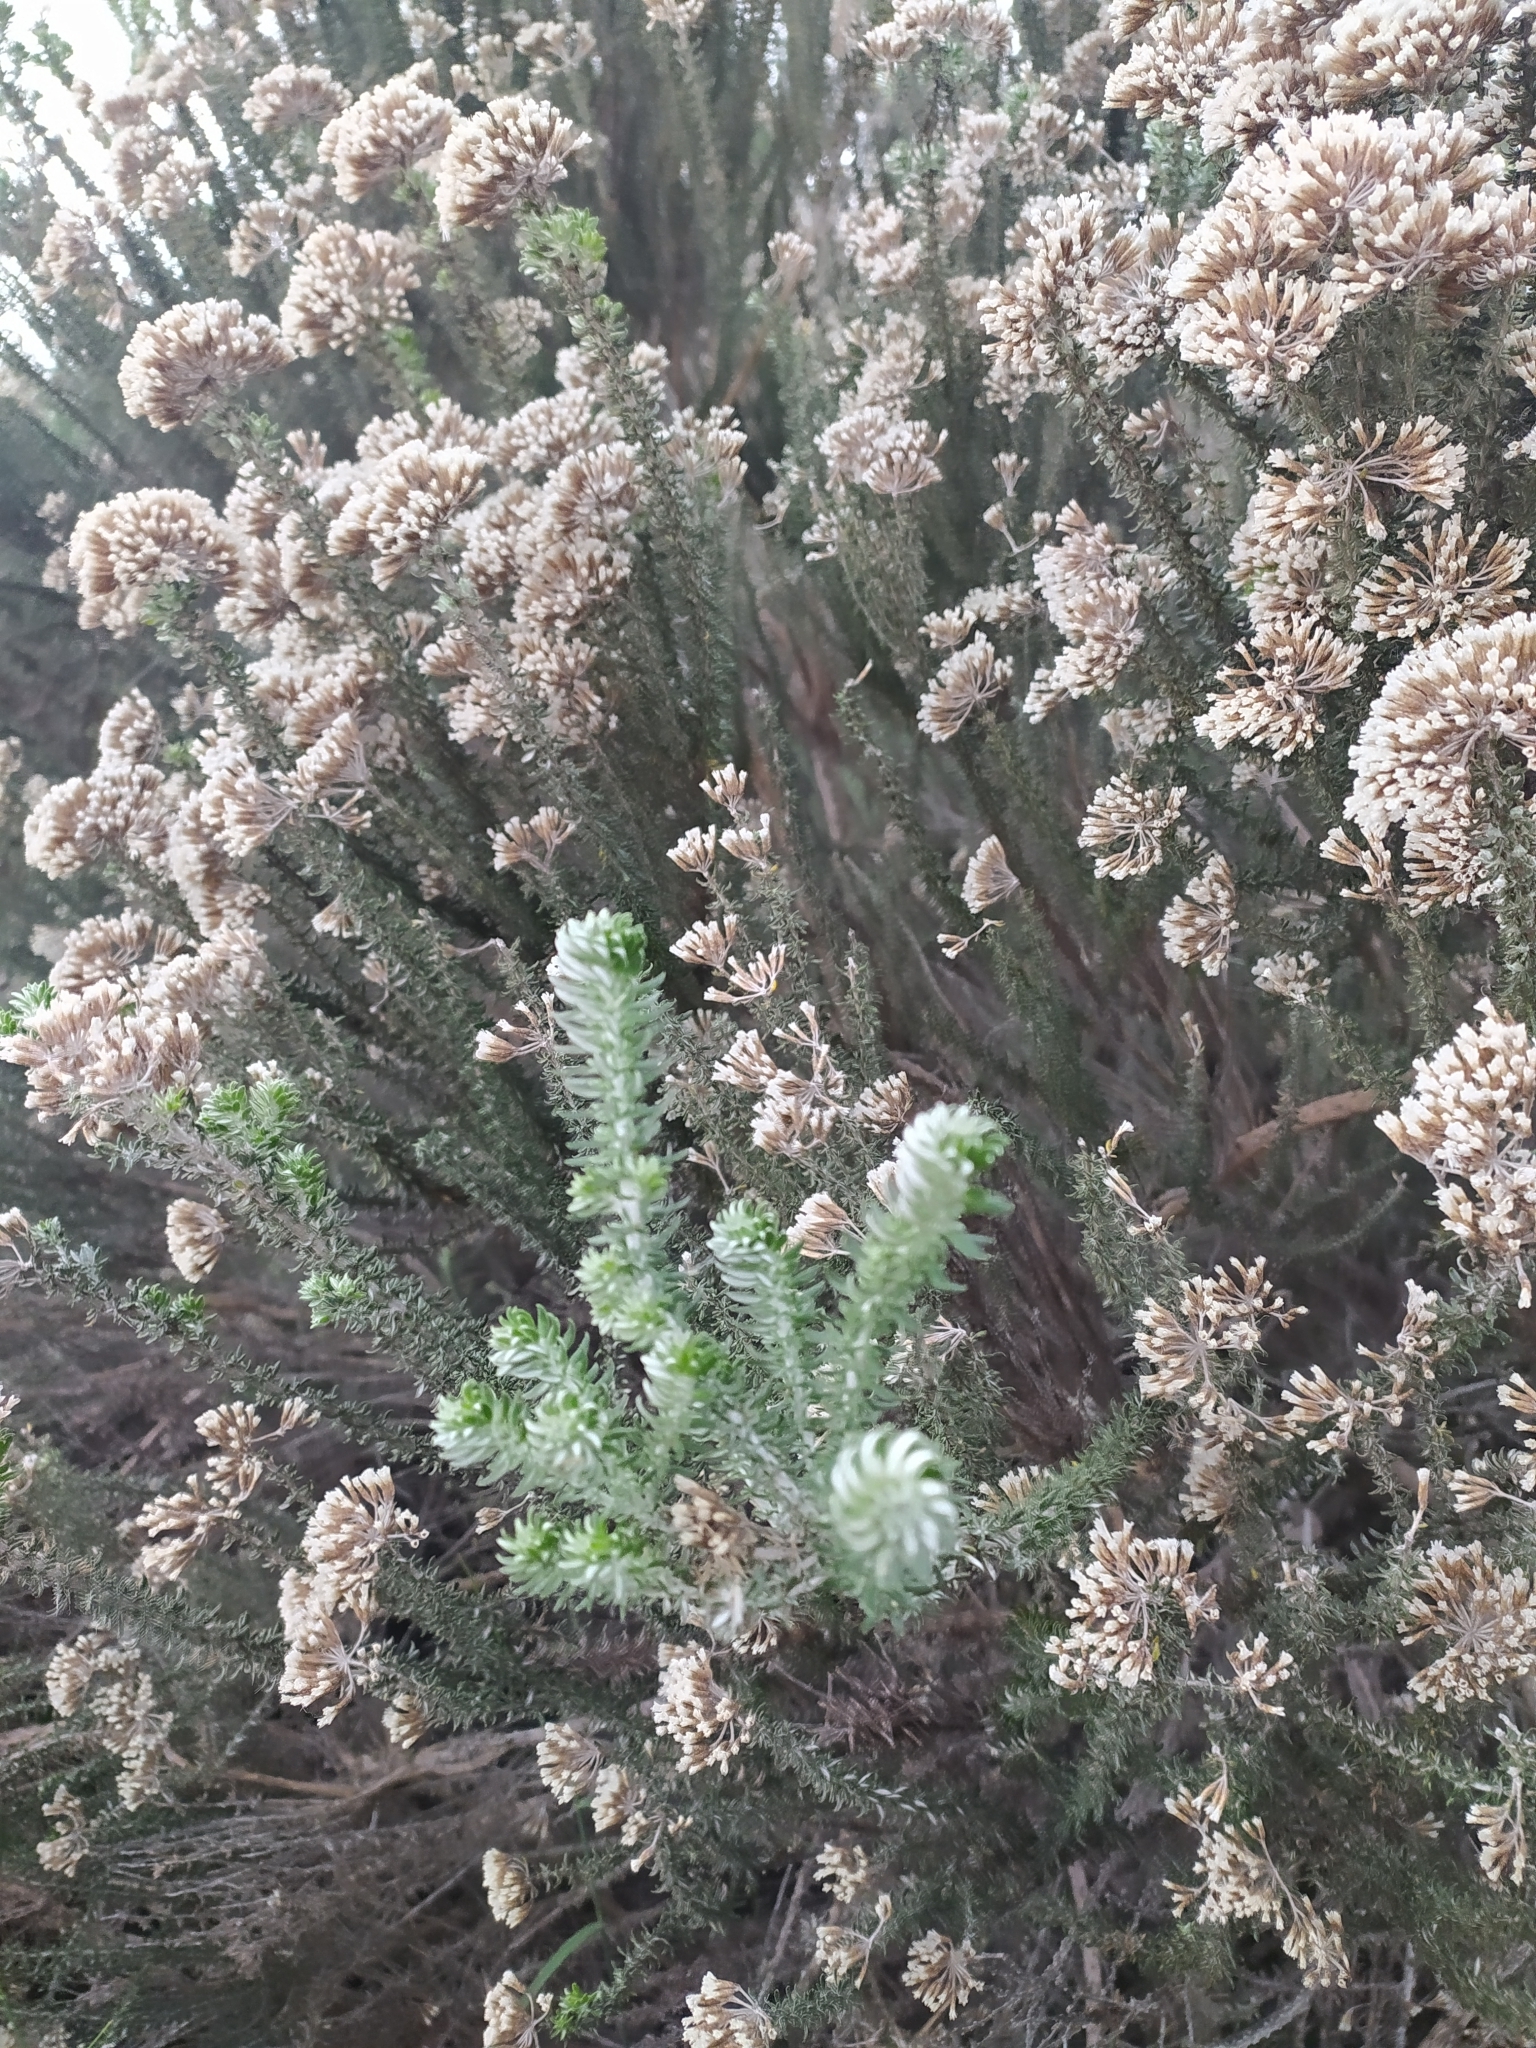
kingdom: Plantae
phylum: Tracheophyta
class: Magnoliopsida
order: Asterales
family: Asteraceae
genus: Metalasia
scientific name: Metalasia muricata
